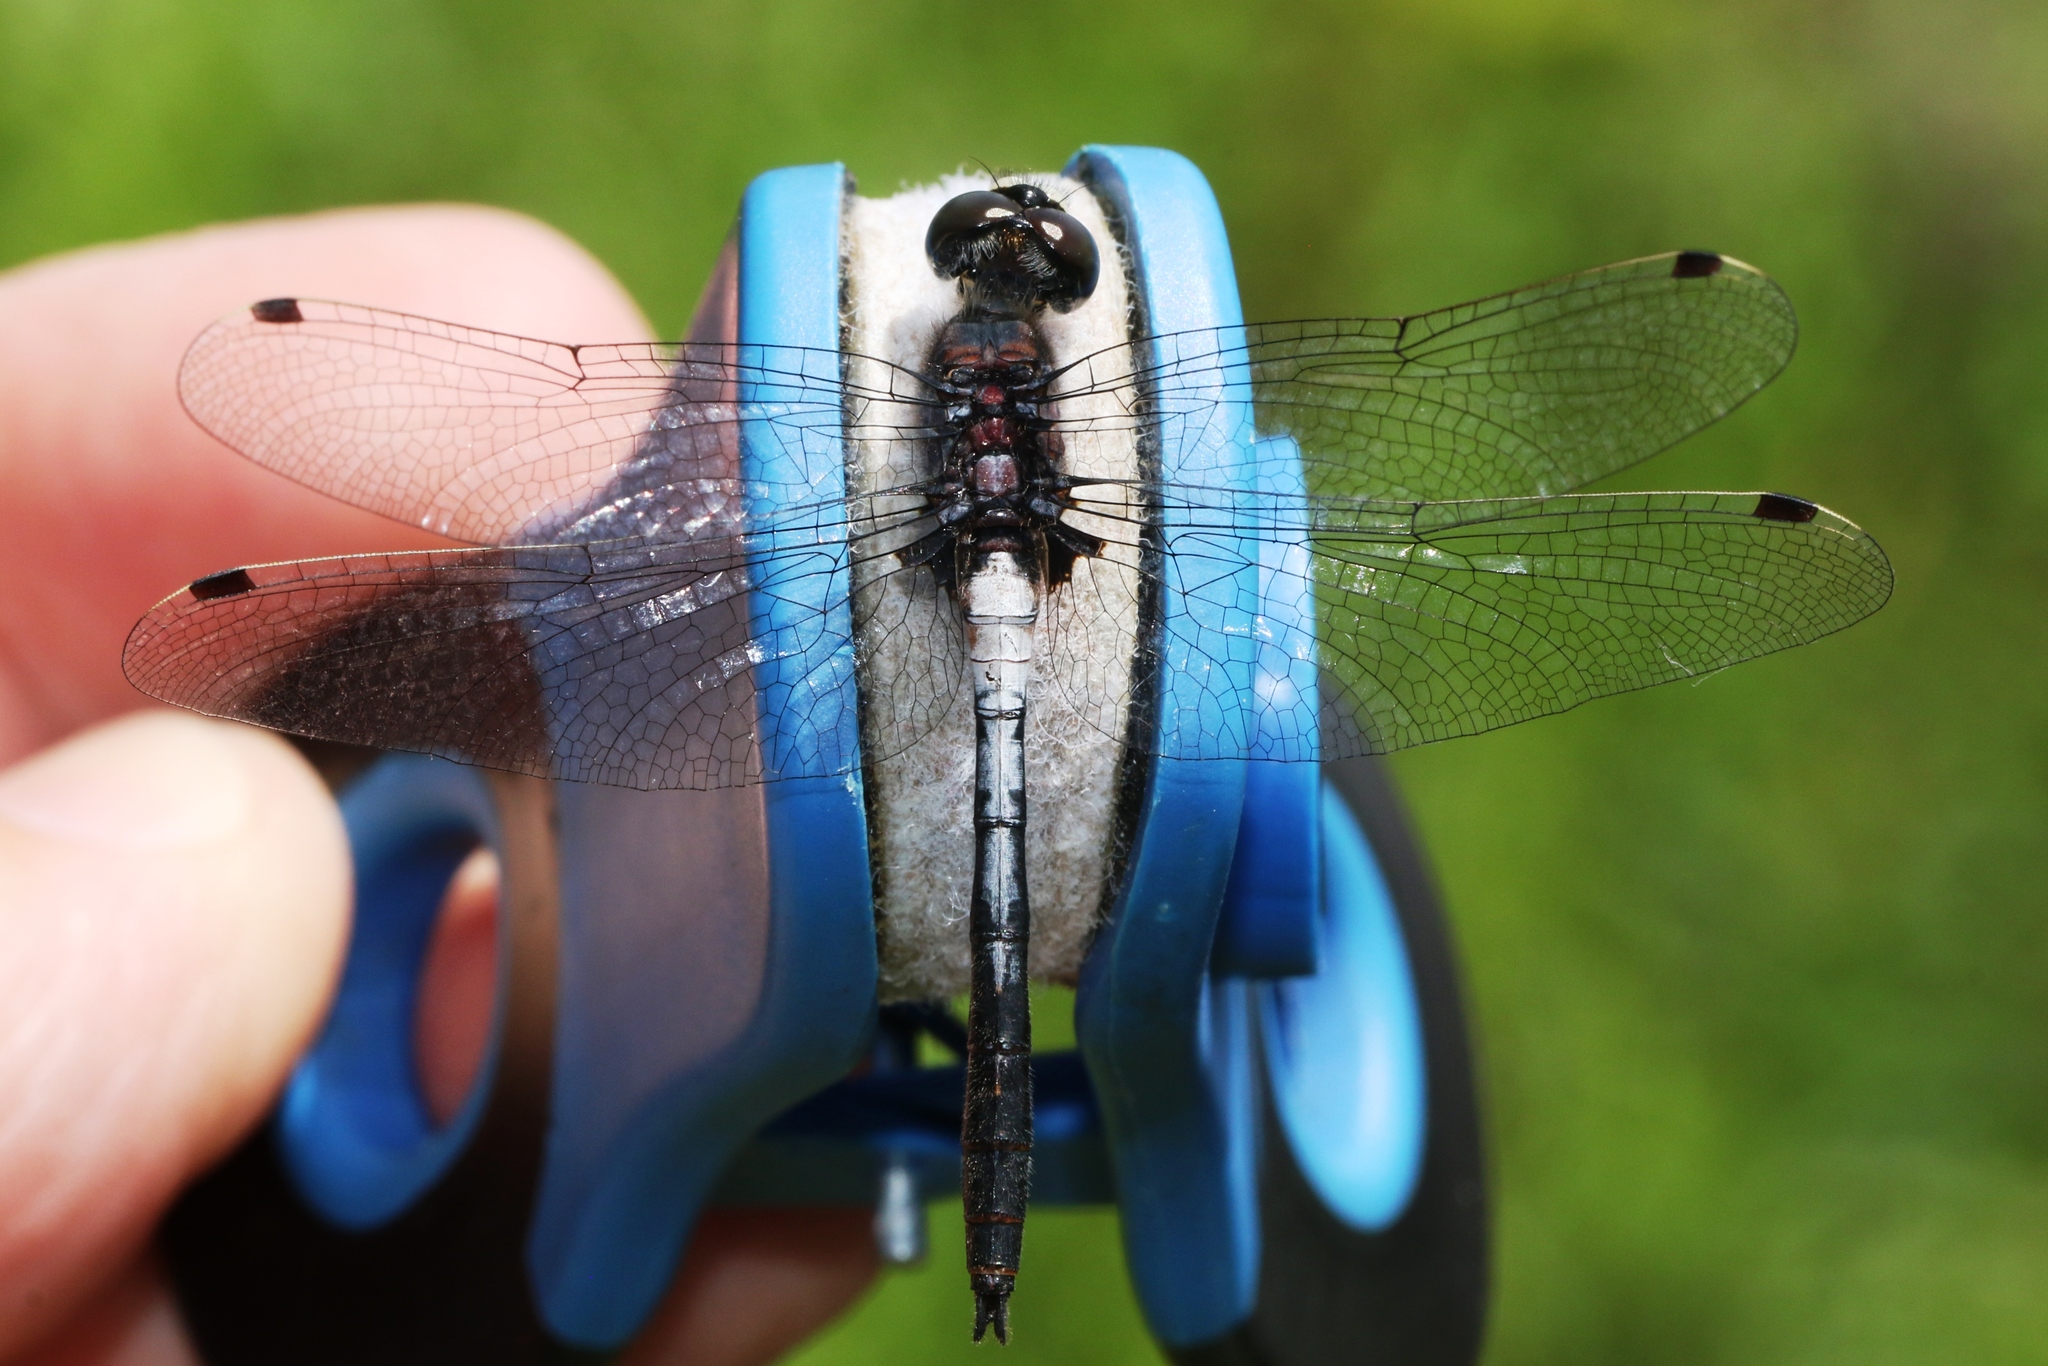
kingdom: Animalia
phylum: Arthropoda
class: Insecta
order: Odonata
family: Libellulidae
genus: Leucorrhinia
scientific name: Leucorrhinia proxima
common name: Belted whiteface
